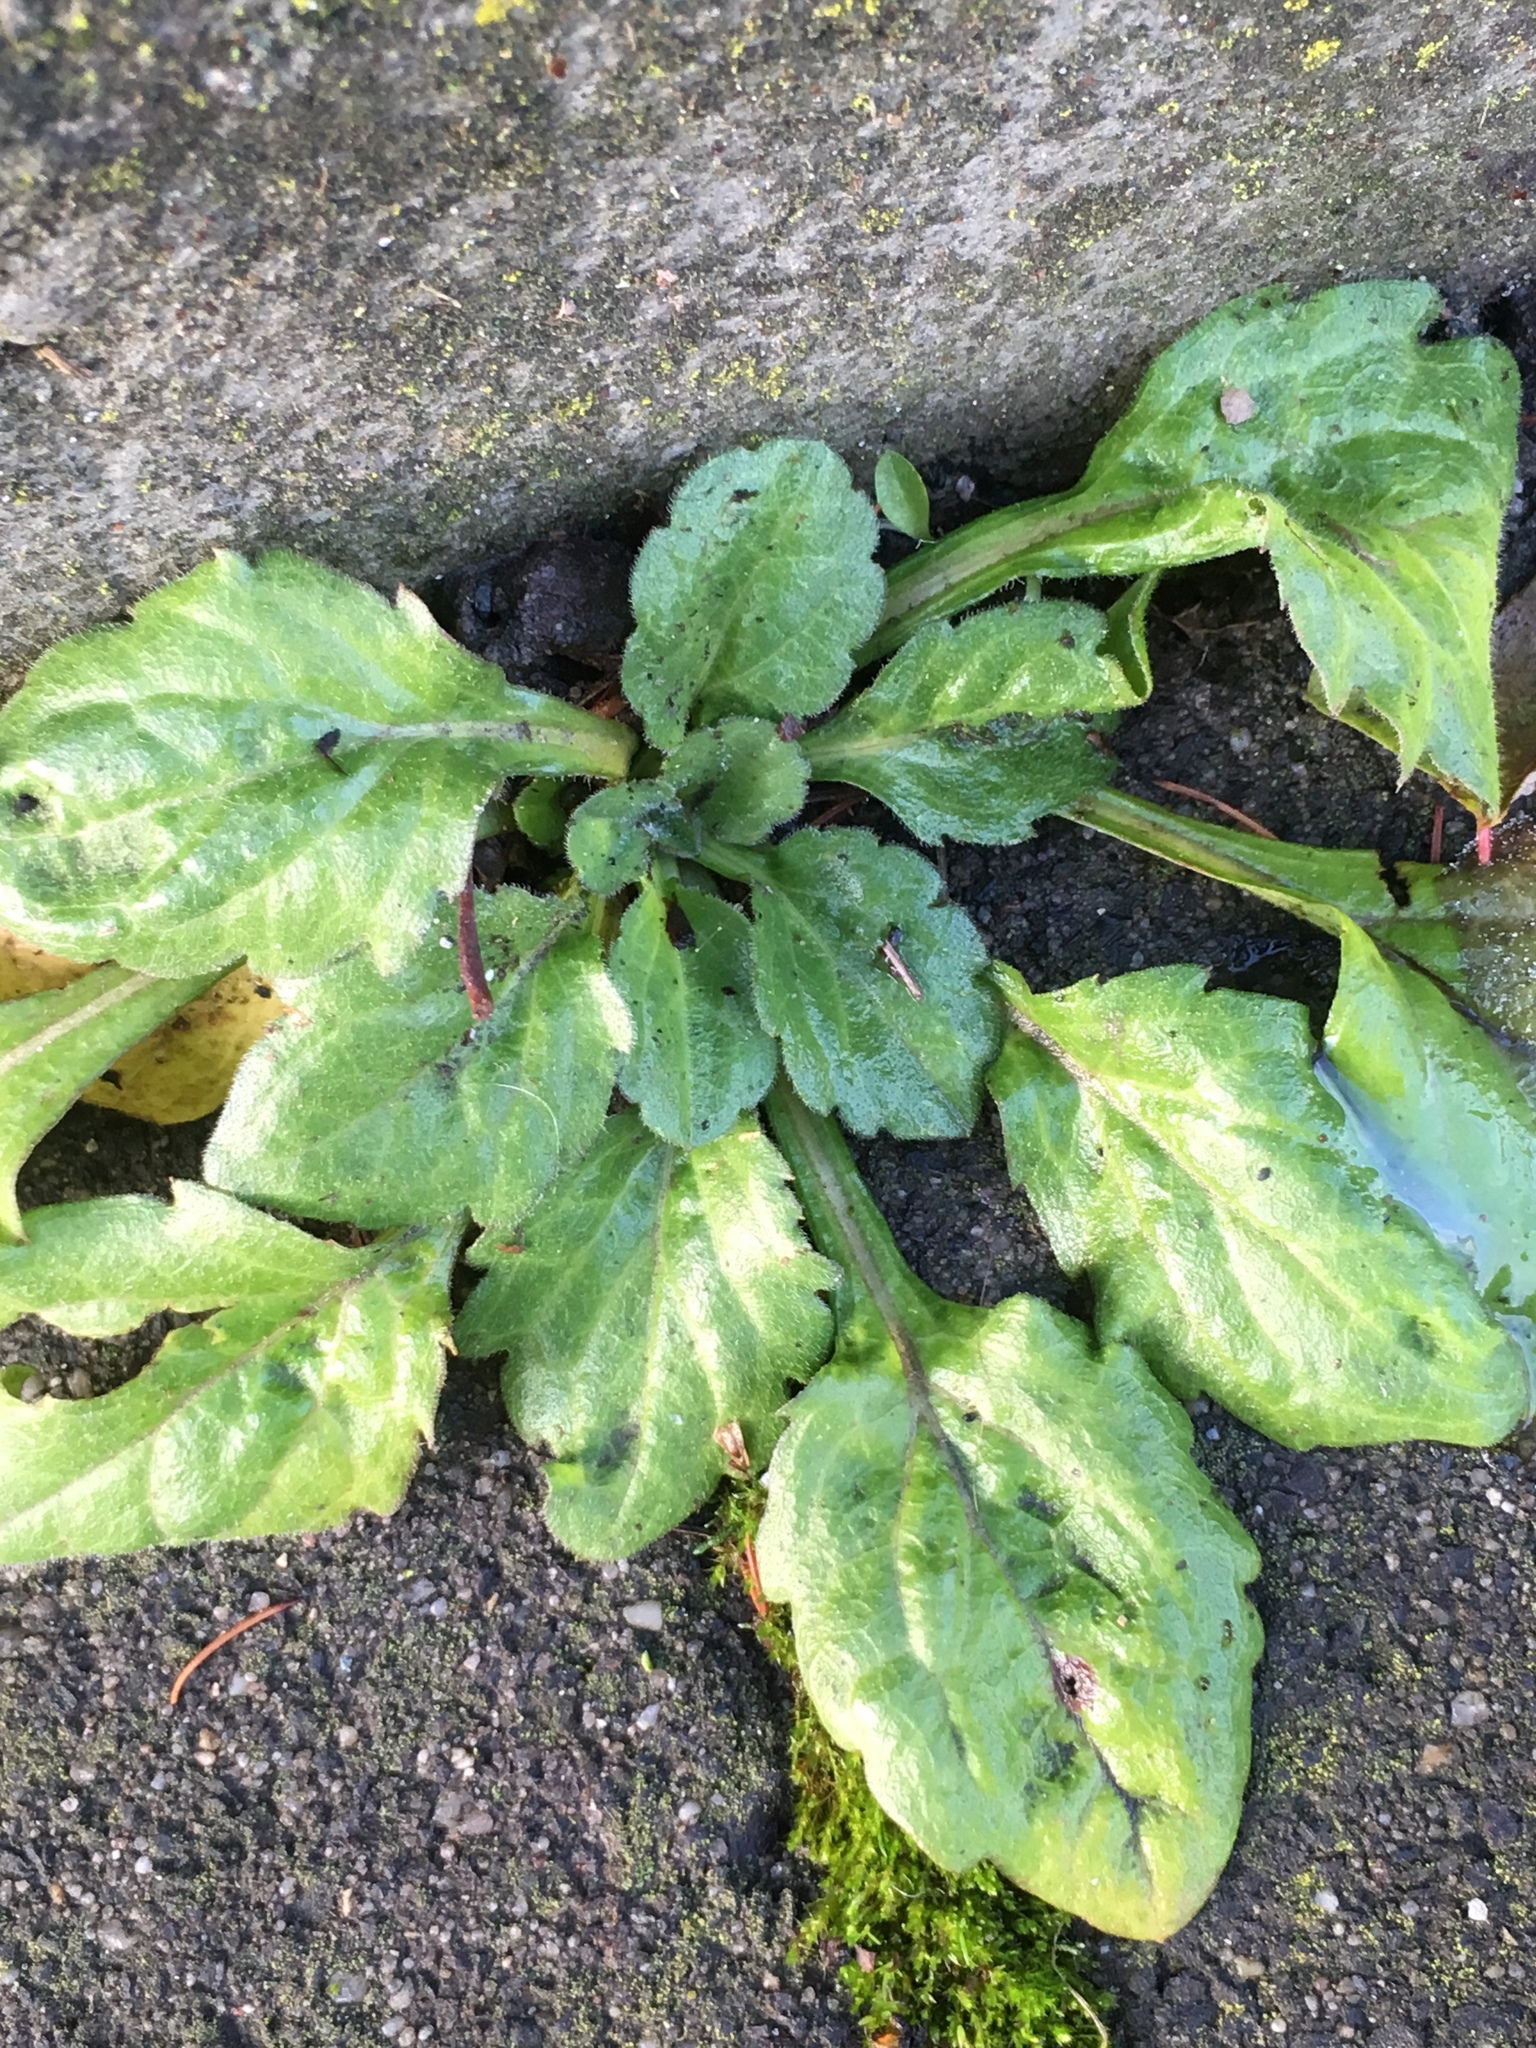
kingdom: Plantae
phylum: Tracheophyta
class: Magnoliopsida
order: Asterales
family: Asteraceae
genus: Erigeron
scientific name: Erigeron canadensis
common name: Canadian fleabane
